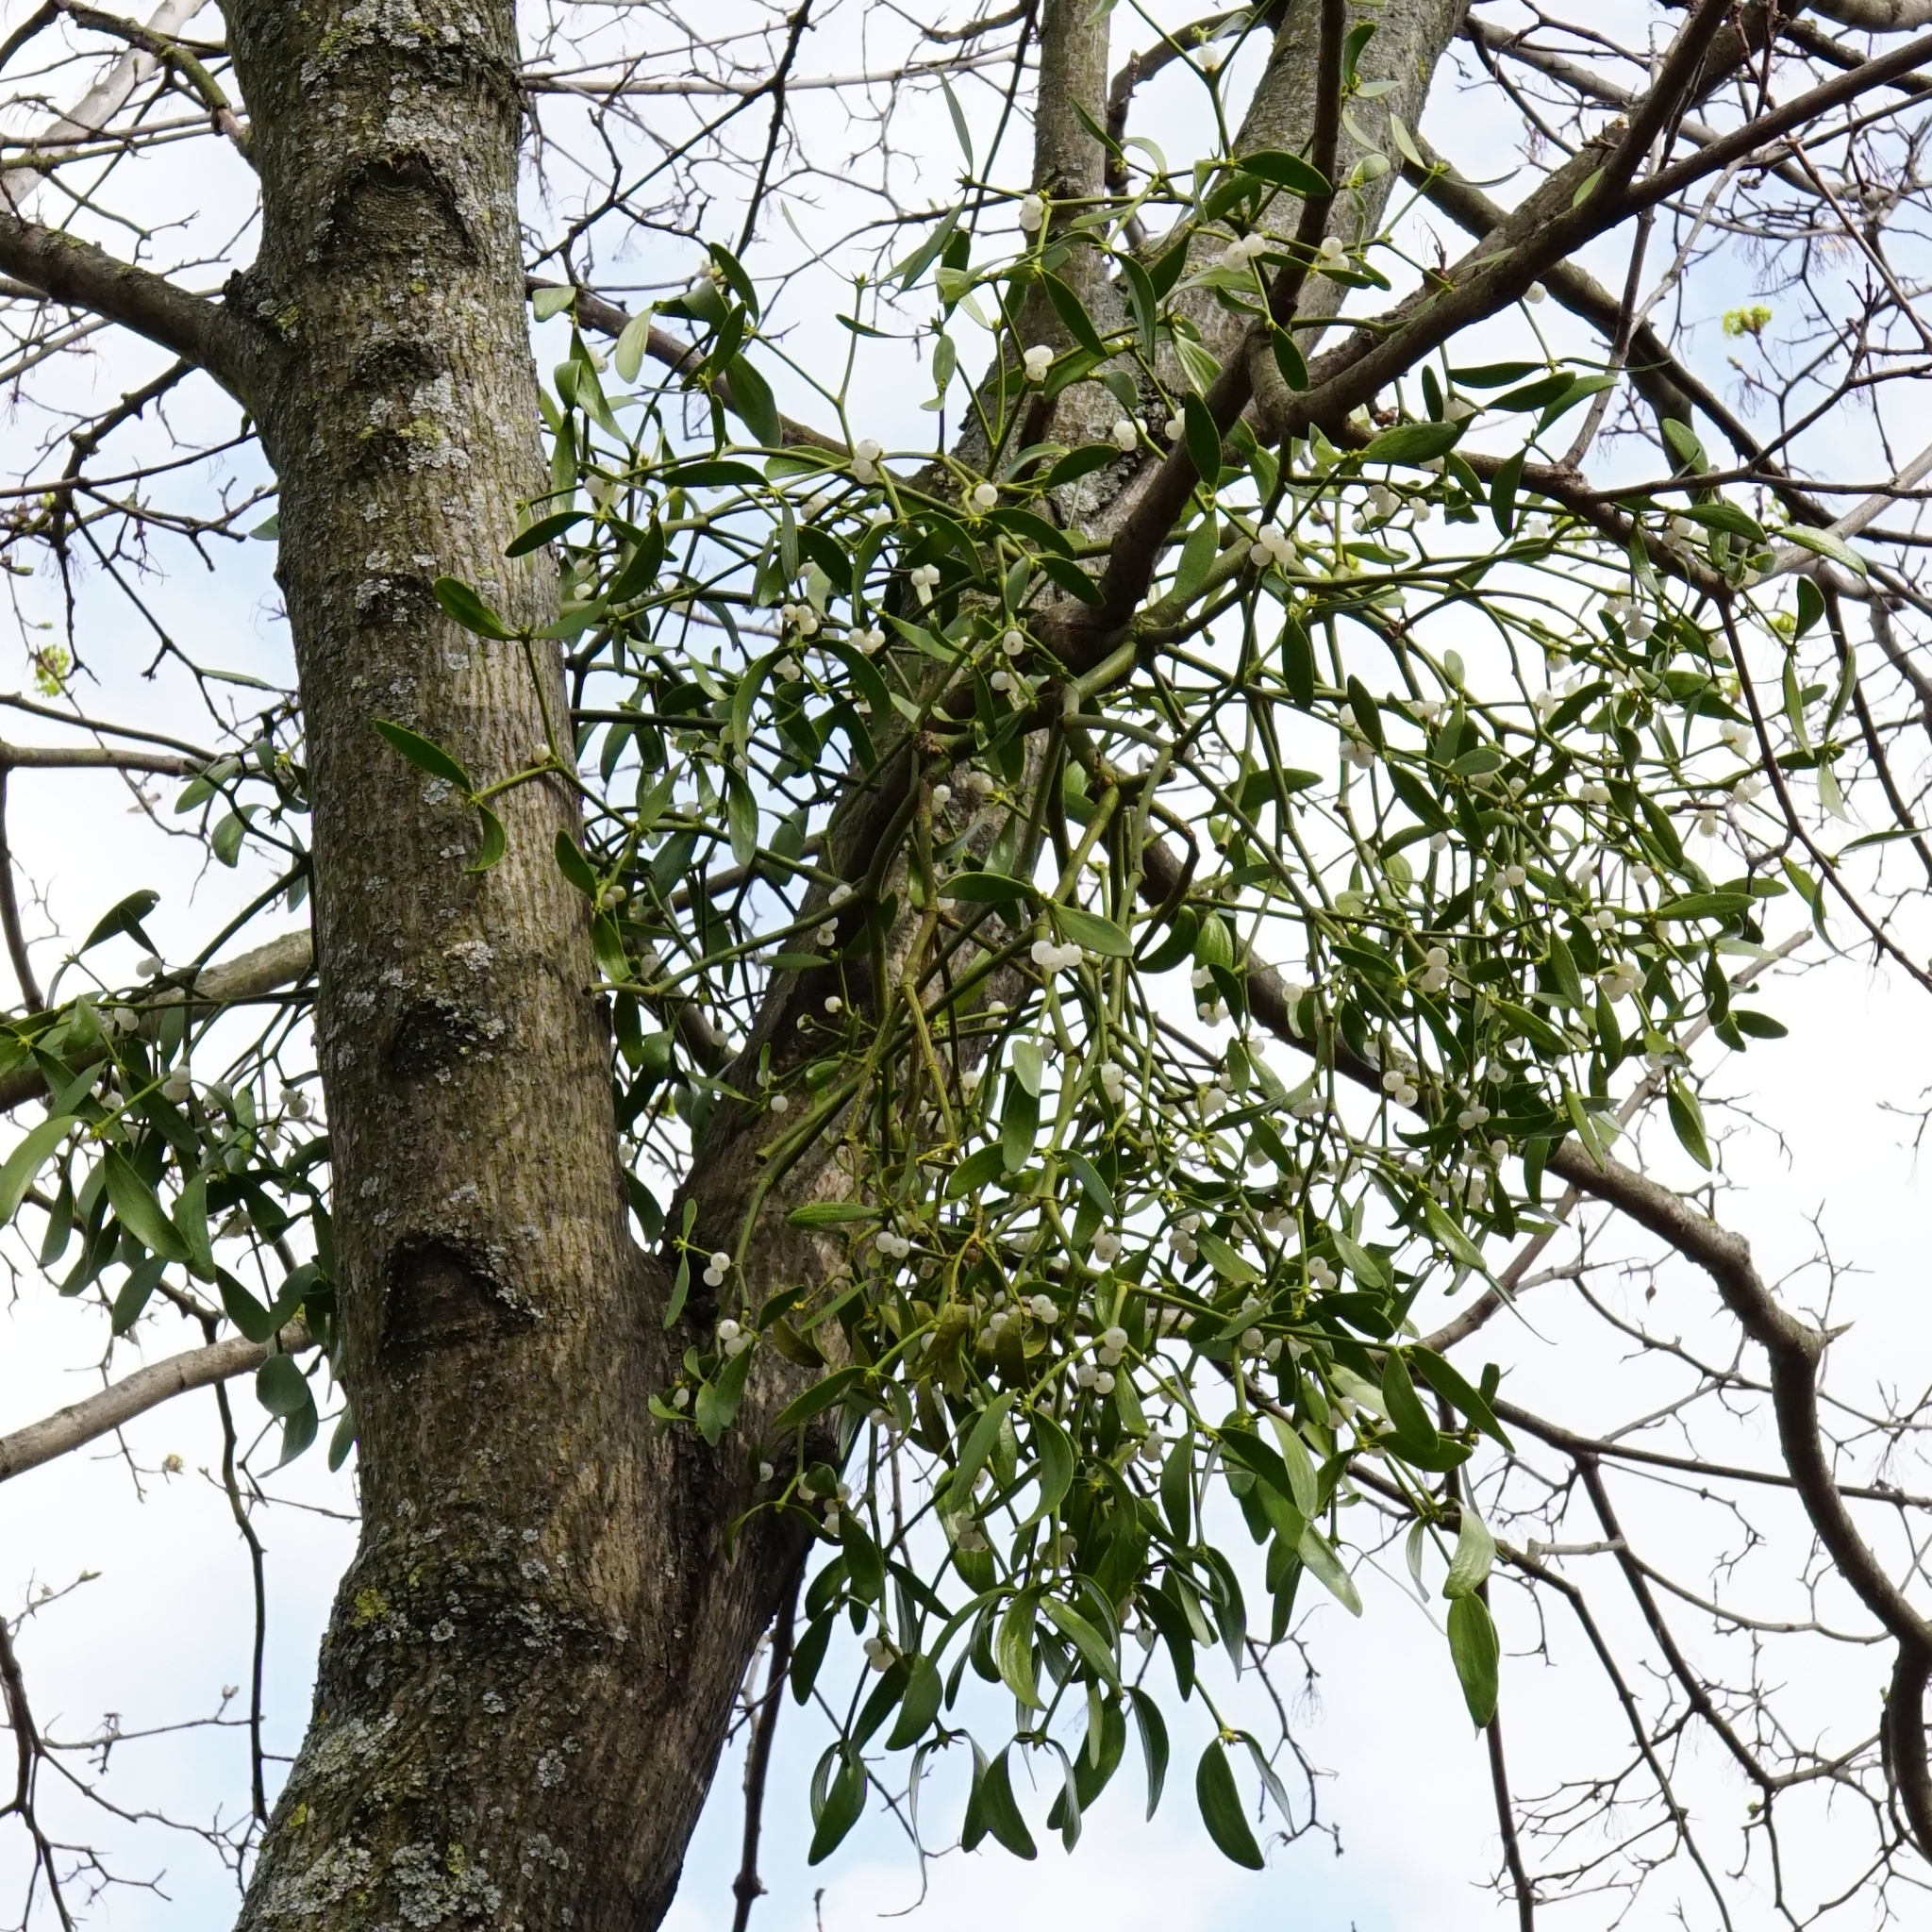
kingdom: Plantae
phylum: Tracheophyta
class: Magnoliopsida
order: Santalales
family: Viscaceae
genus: Viscum
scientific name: Viscum album
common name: Mistletoe
